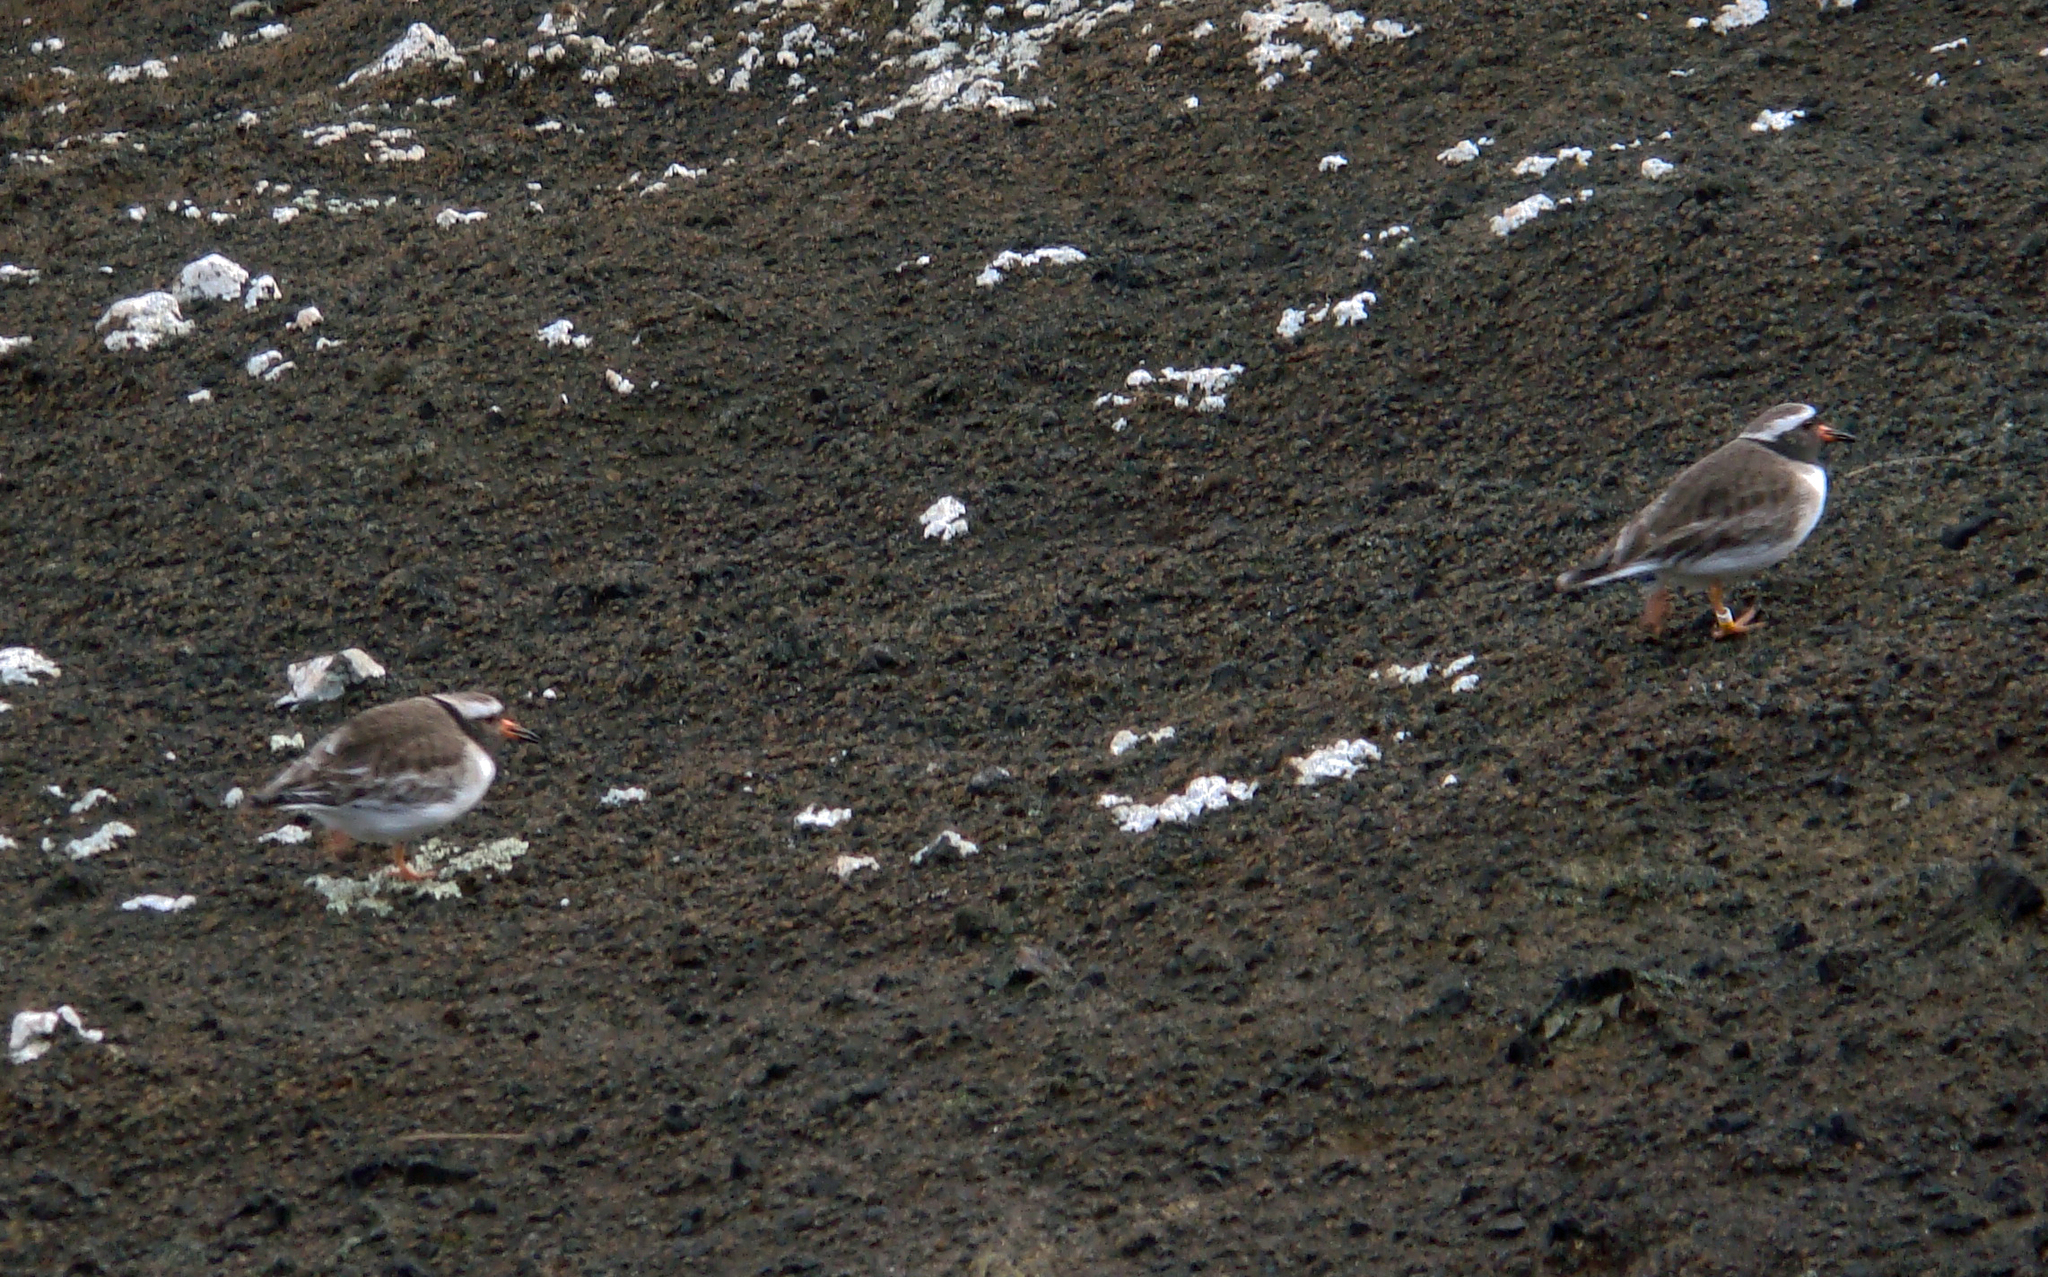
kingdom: Animalia
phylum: Chordata
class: Aves
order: Charadriiformes
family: Charadriidae
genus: Thinornis
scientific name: Thinornis novaeseelandiae
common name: Shore dotterel
